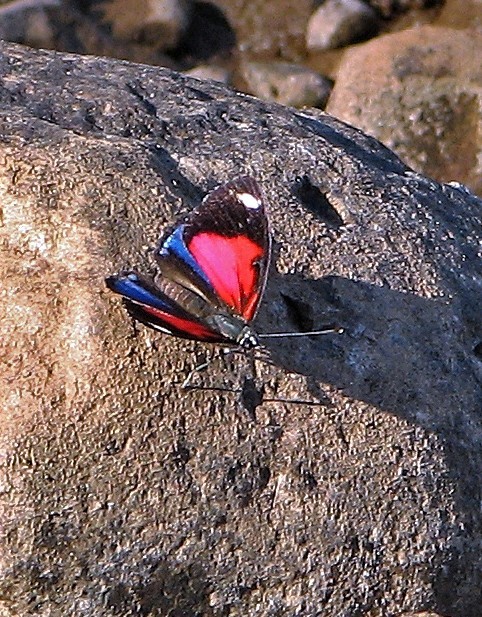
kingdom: Animalia
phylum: Arthropoda
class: Insecta
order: Lepidoptera
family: Nymphalidae
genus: Catagramma
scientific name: Catagramma pyracmon
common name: Google-eyed eighty-eight
